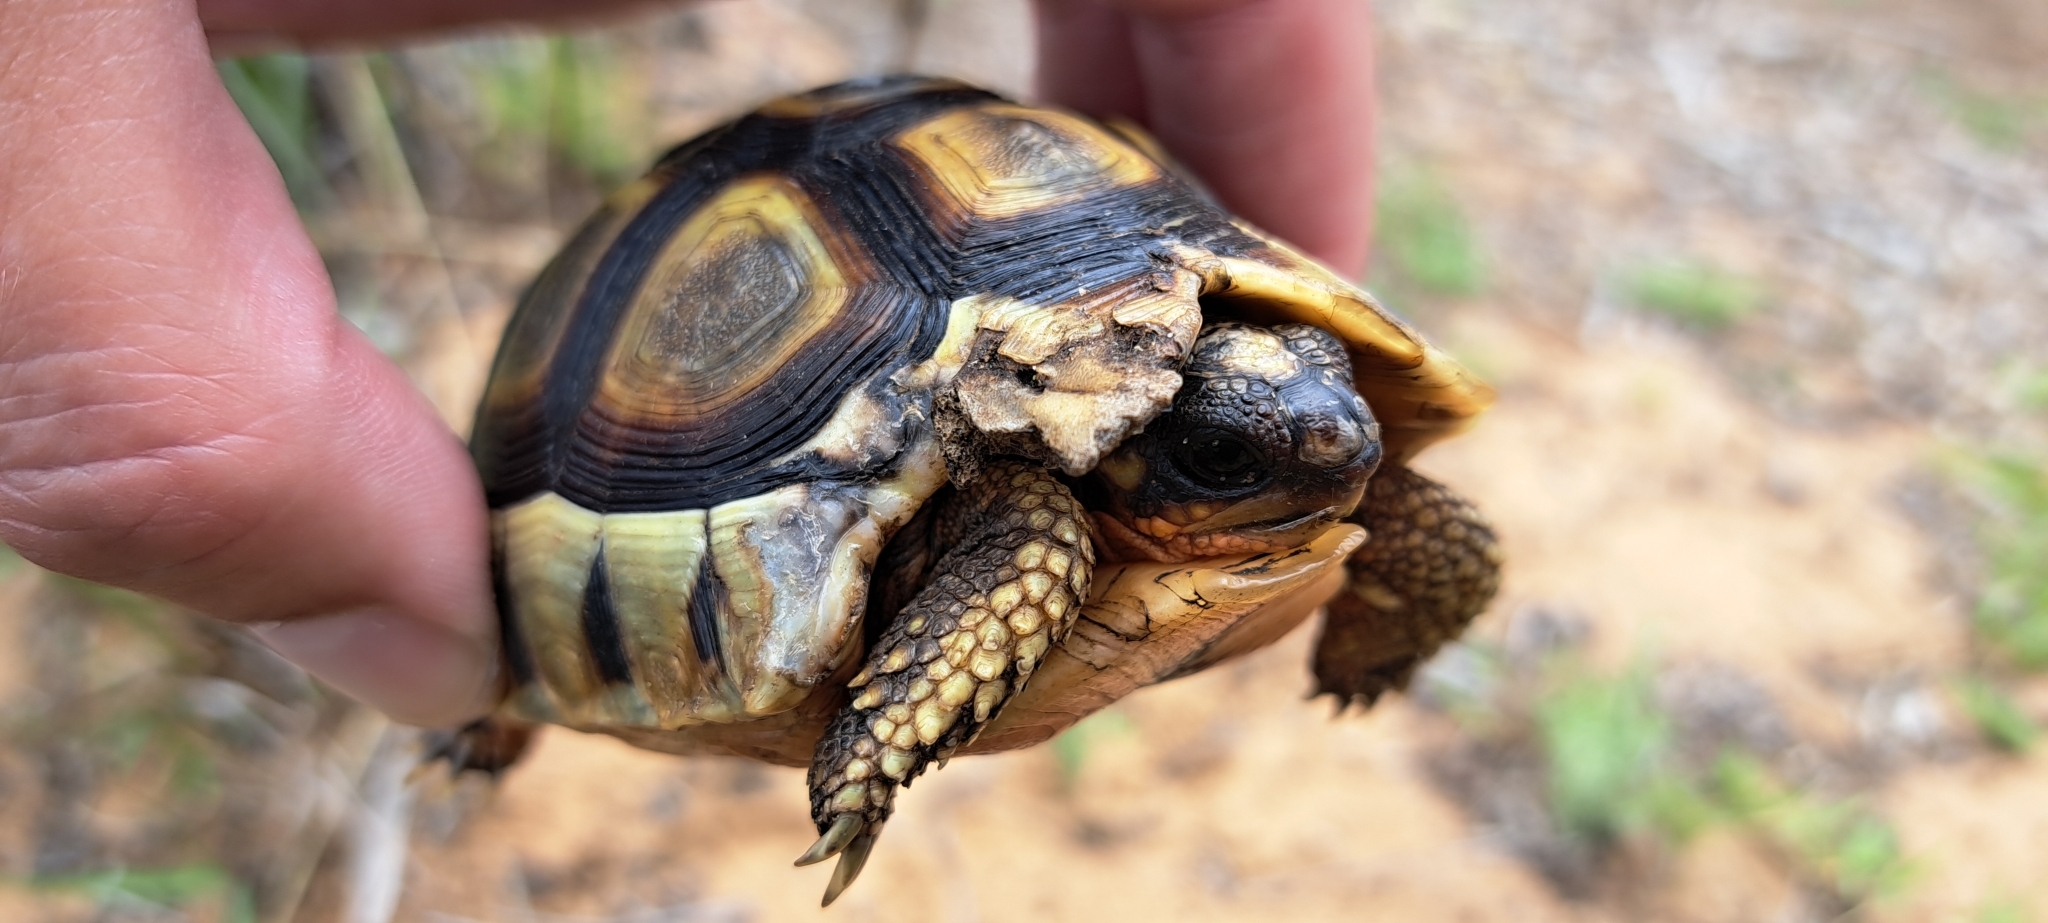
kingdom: Animalia
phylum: Chordata
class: Testudines
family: Testudinidae
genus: Chersina
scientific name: Chersina angulata
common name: South african bowsprit tortoise
